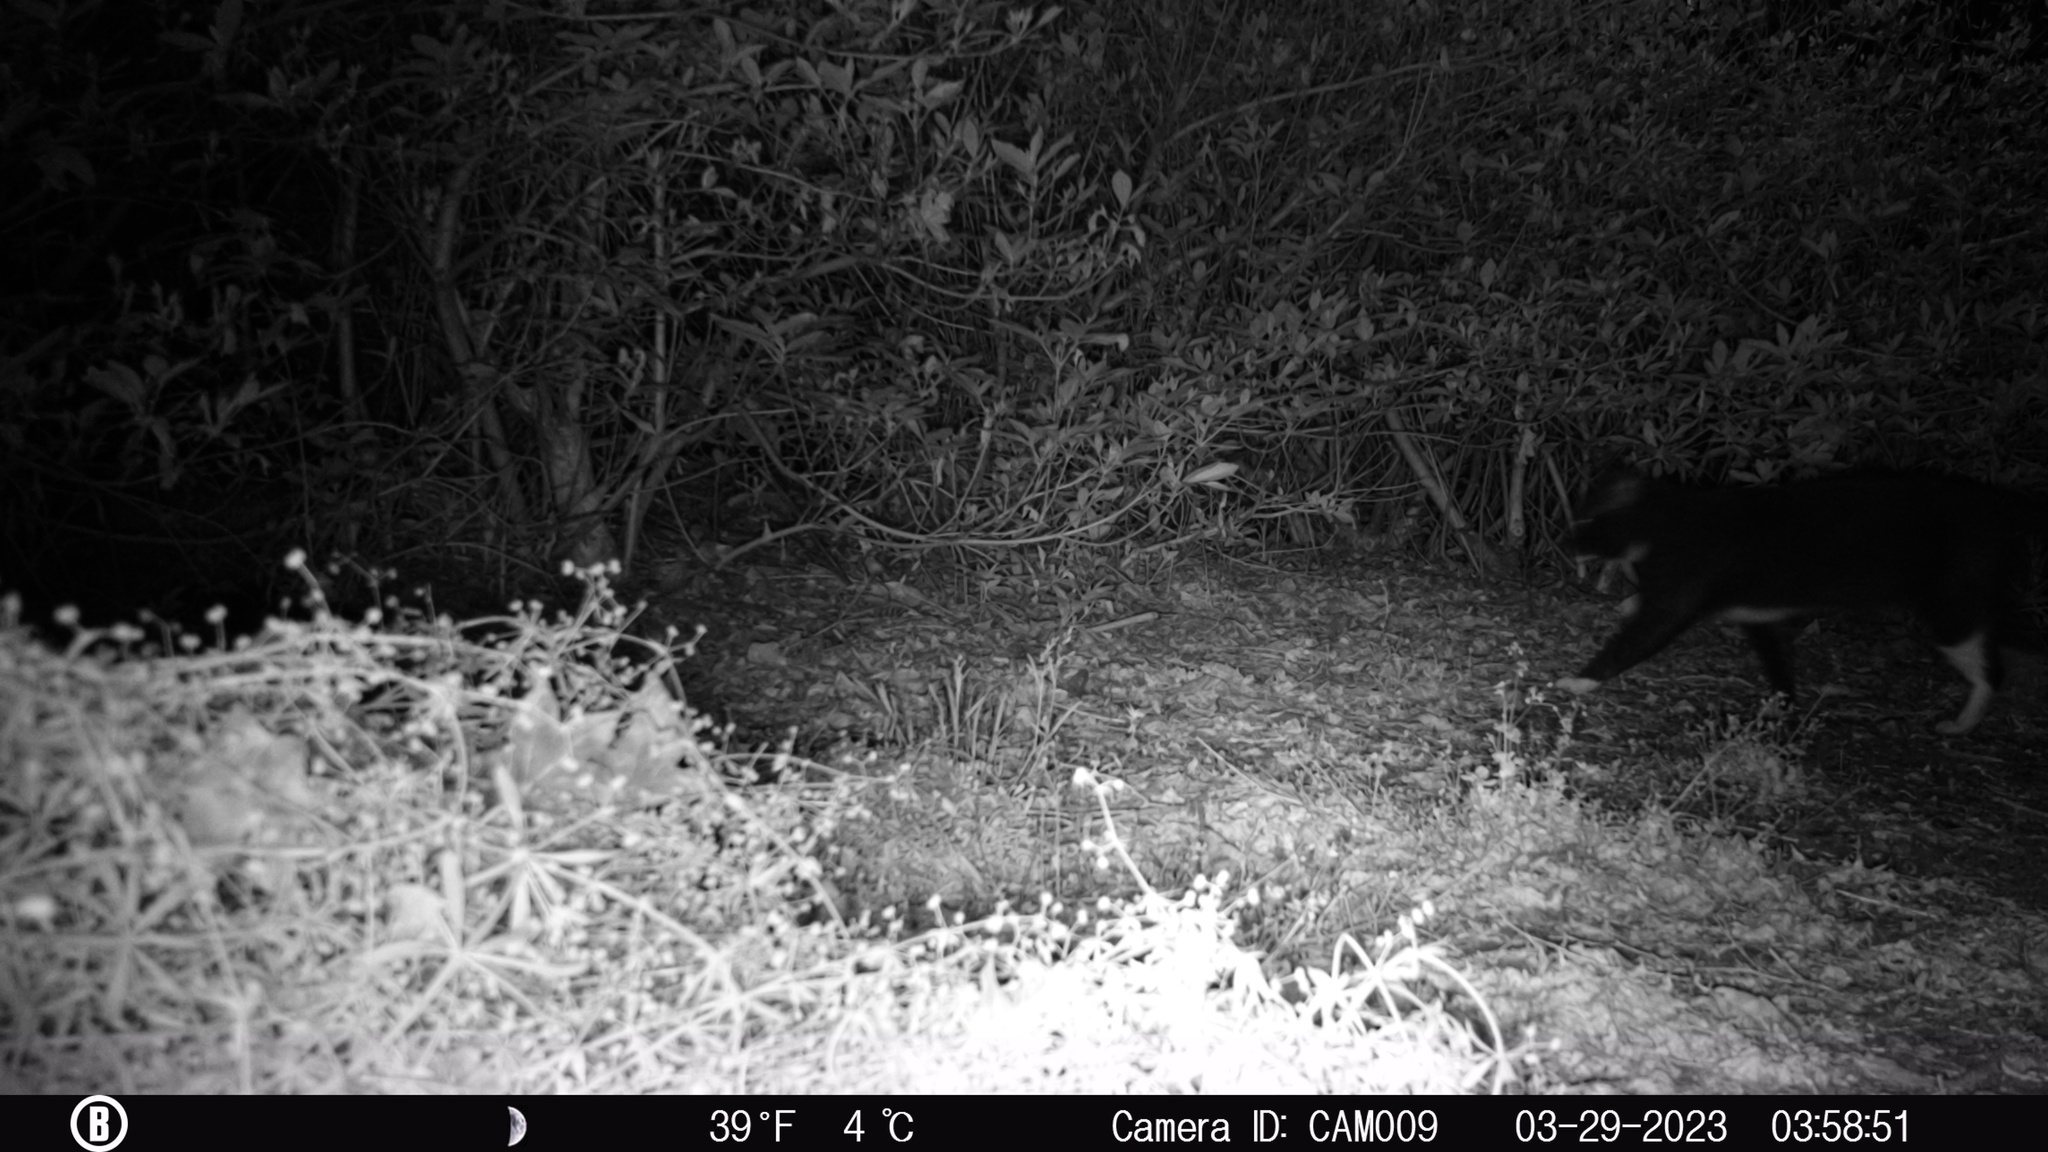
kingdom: Animalia
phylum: Chordata
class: Mammalia
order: Carnivora
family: Felidae
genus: Felis
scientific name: Felis catus
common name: Domestic cat
